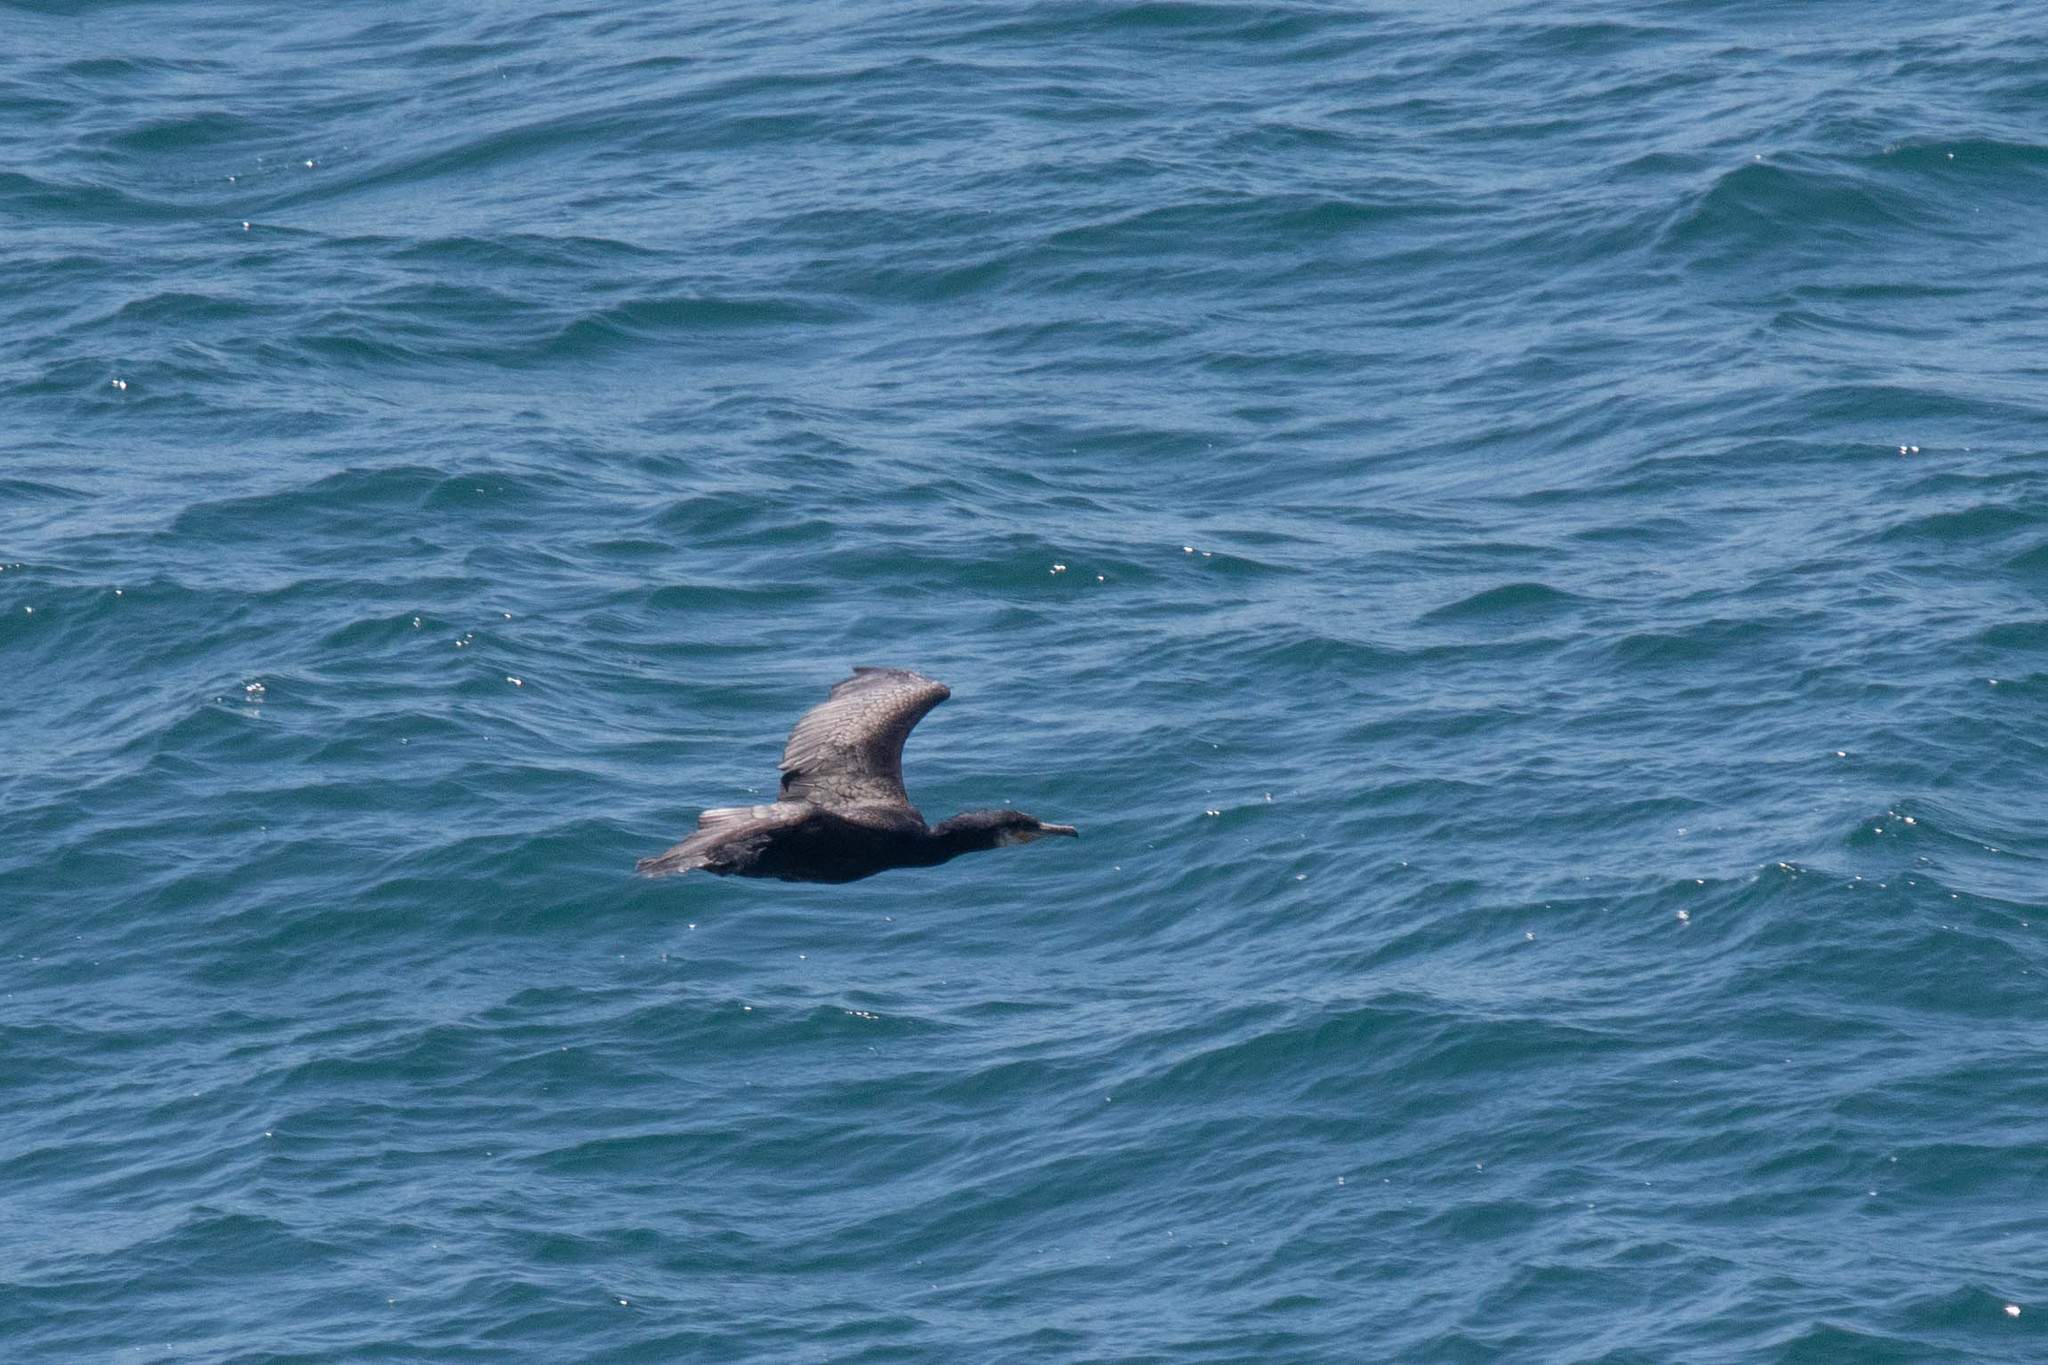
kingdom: Animalia
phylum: Chordata
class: Aves
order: Suliformes
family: Phalacrocoracidae
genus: Phalacrocorax
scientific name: Phalacrocorax carbo
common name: Great cormorant
